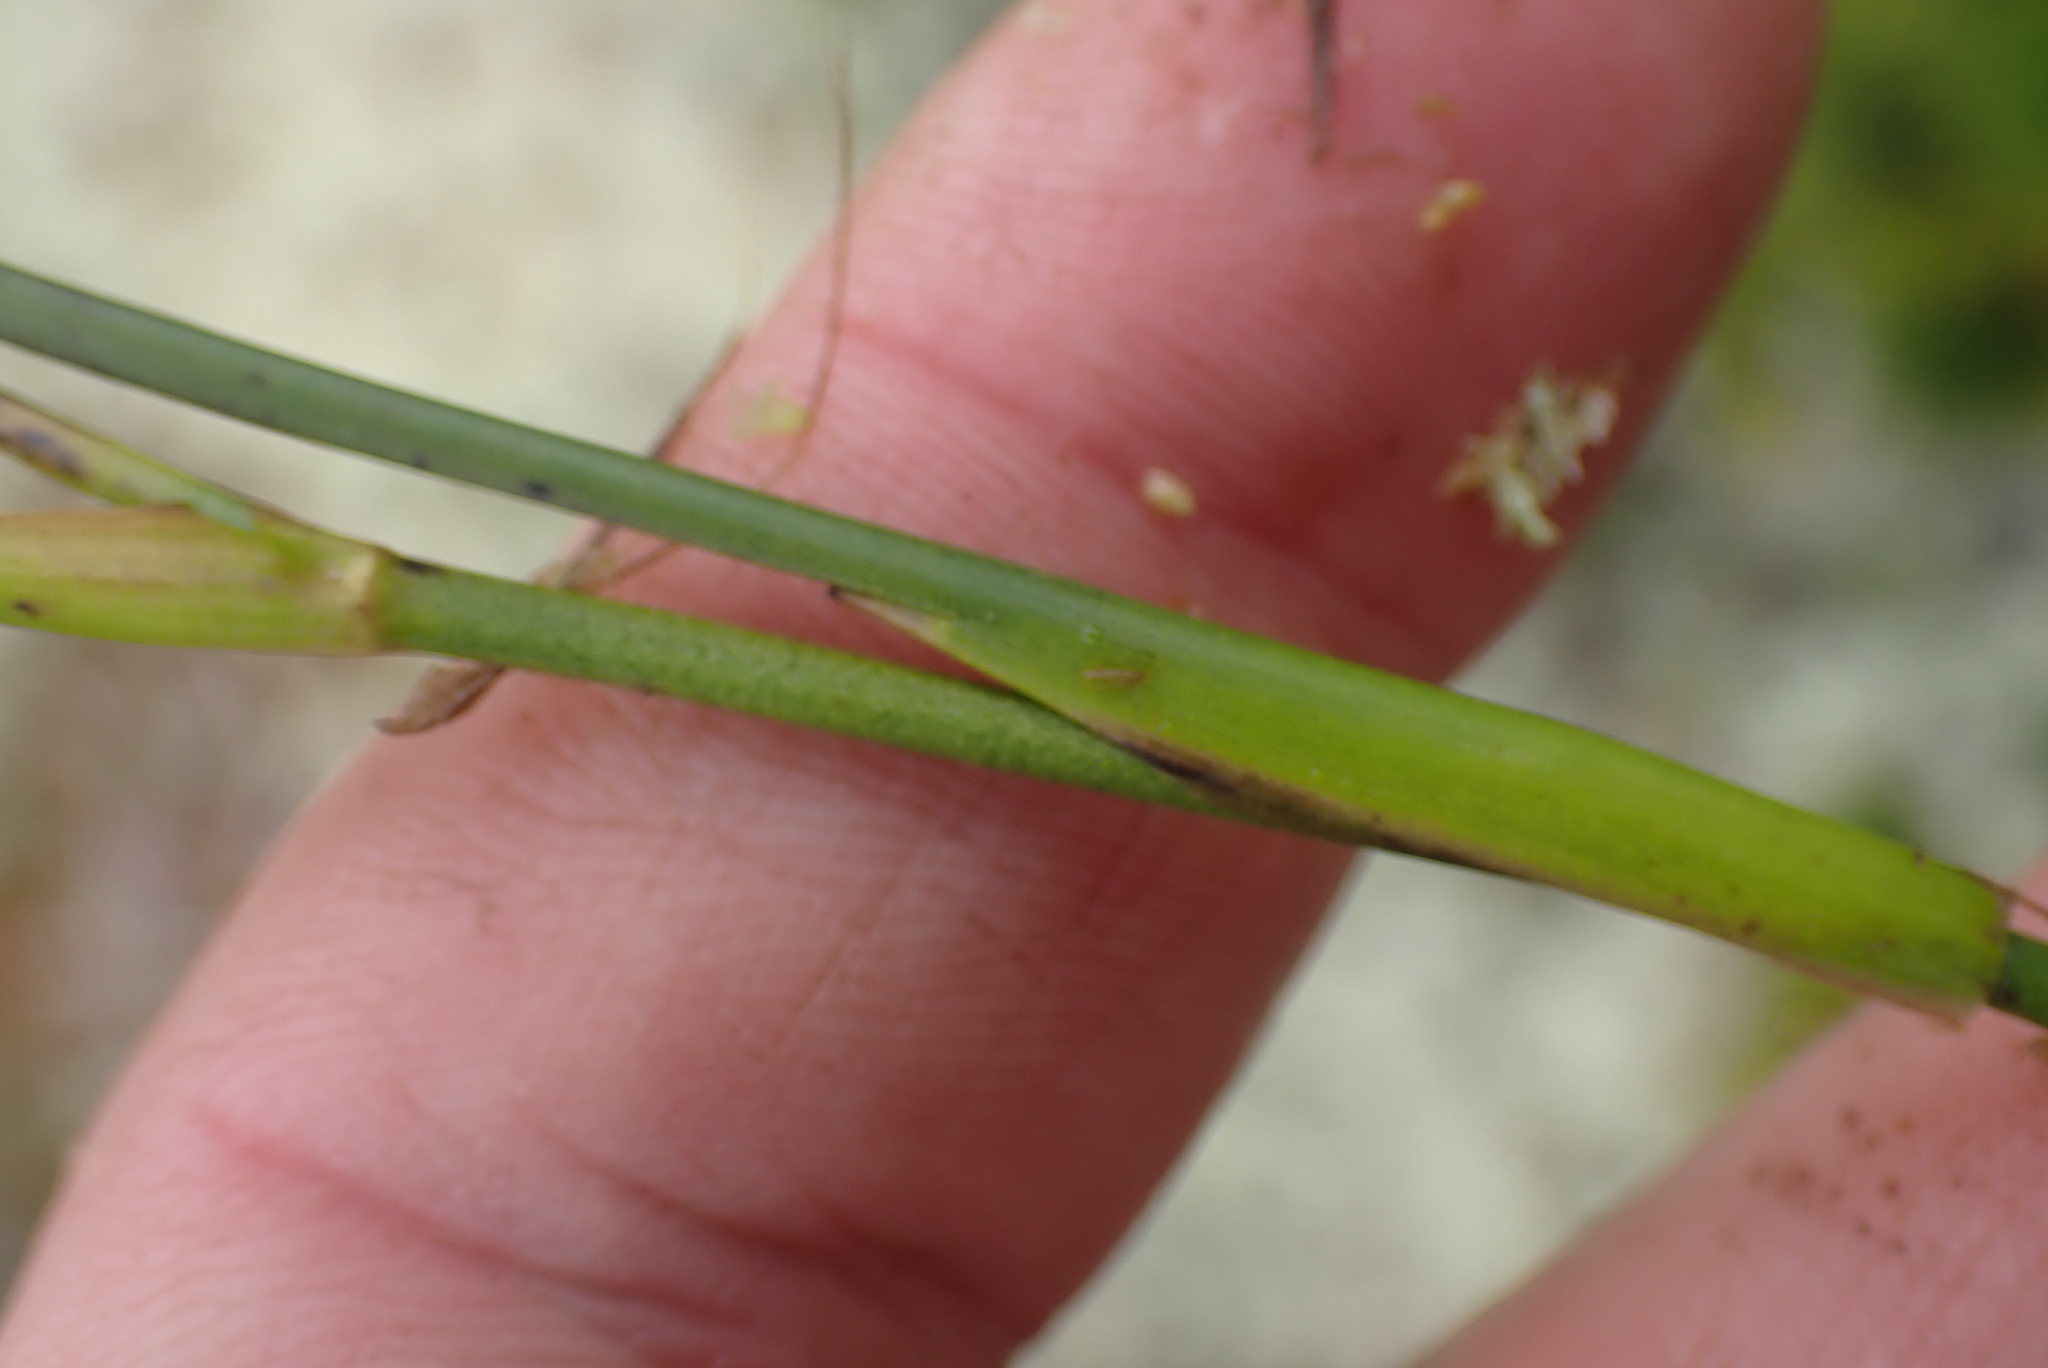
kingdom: Plantae
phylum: Tracheophyta
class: Liliopsida
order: Alismatales
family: Scheuchzeriaceae
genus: Scheuchzeria
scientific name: Scheuchzeria palustris
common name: Rannoch-rush
